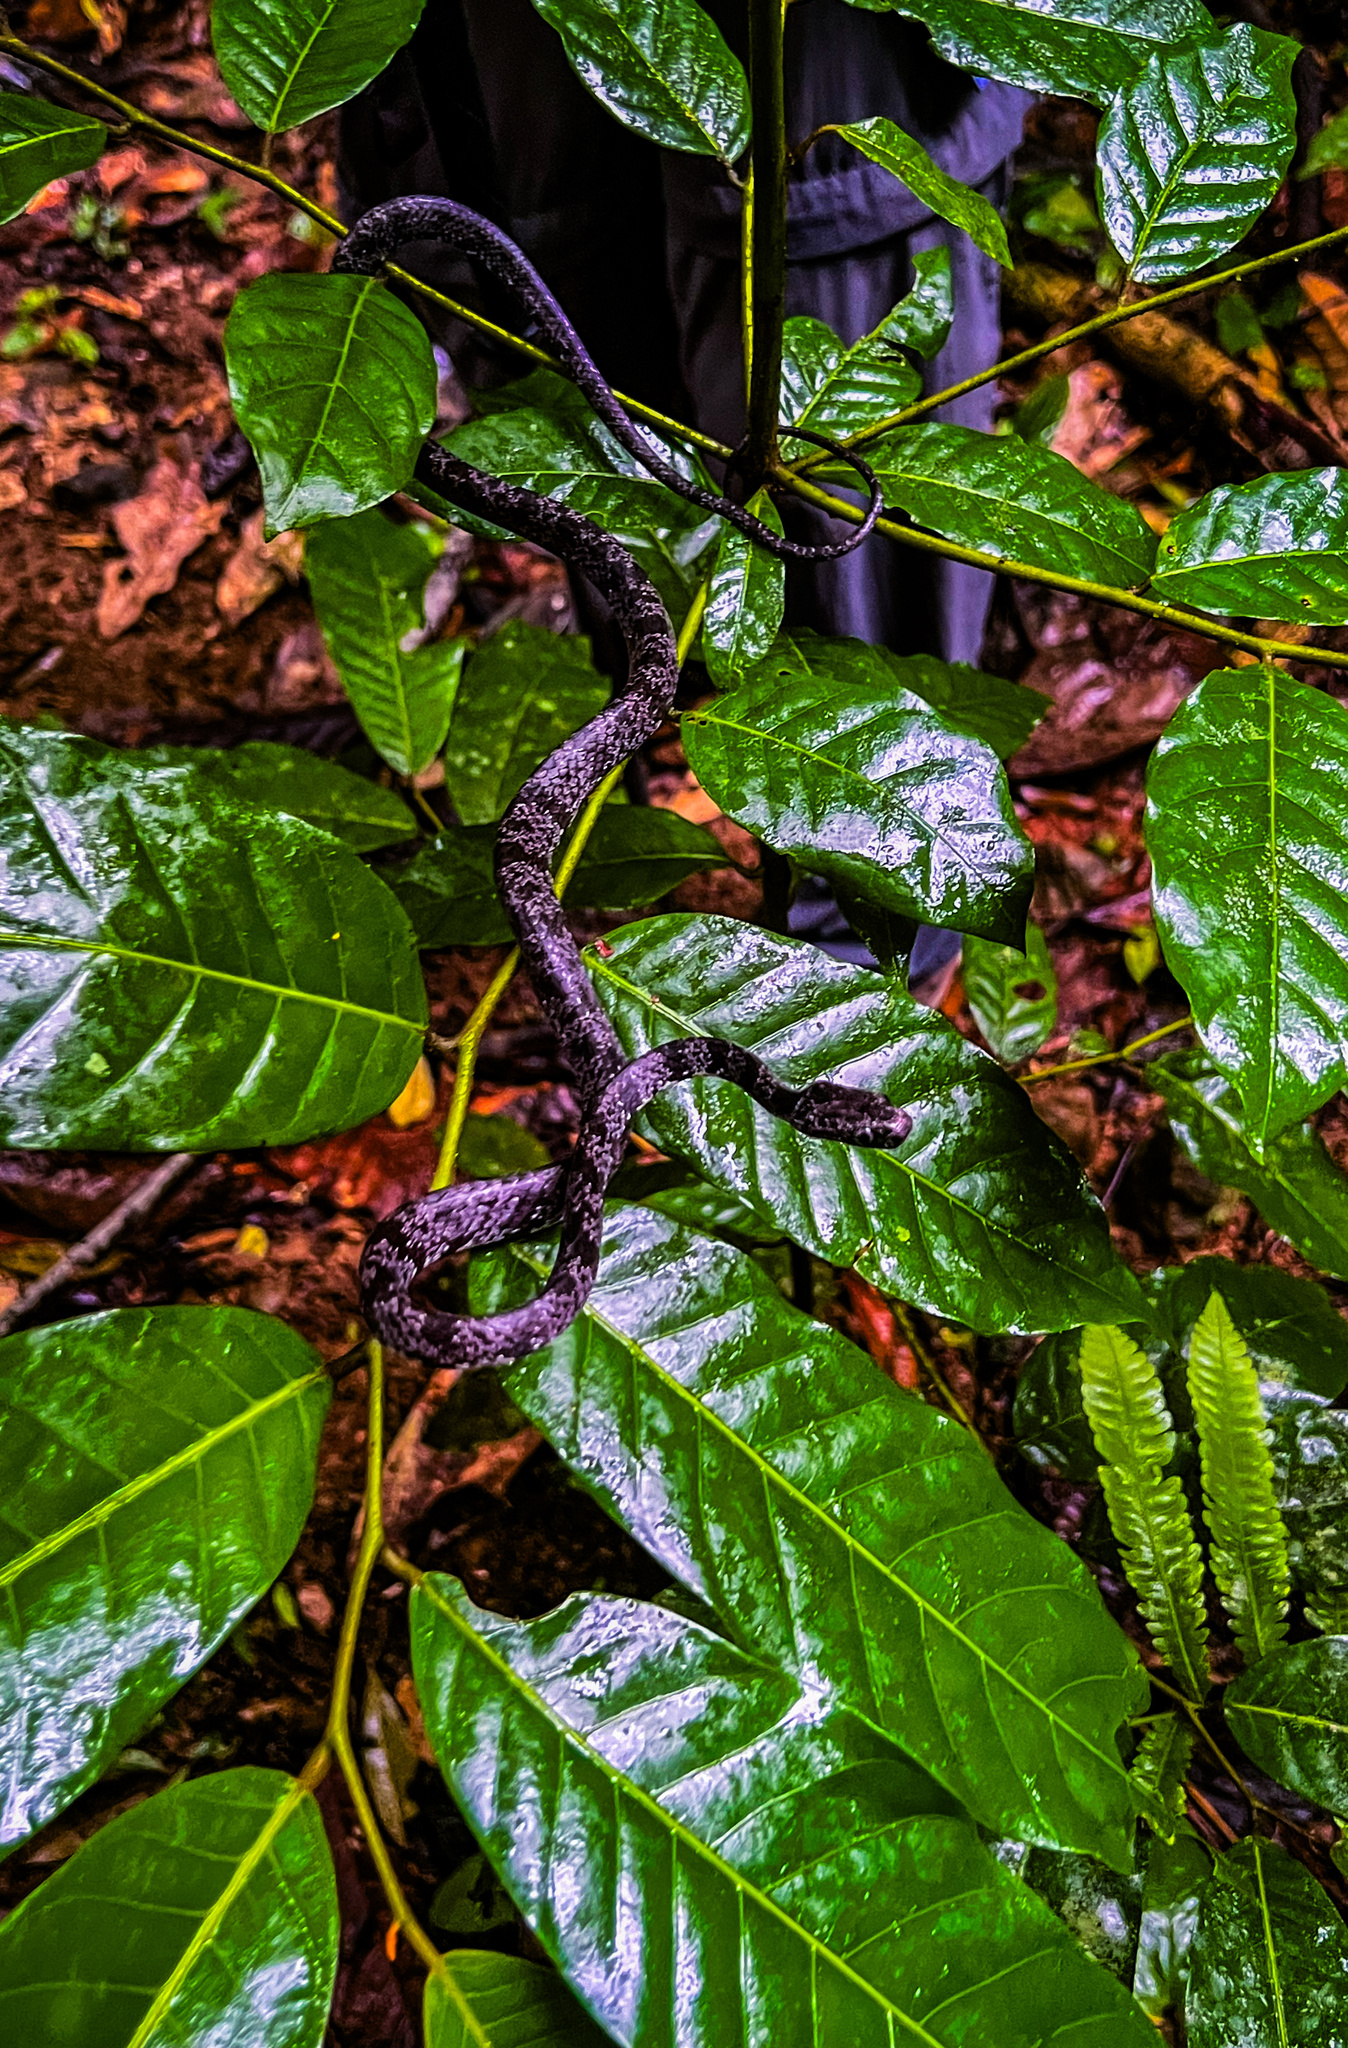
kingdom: Animalia
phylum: Chordata
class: Squamata
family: Colubridae
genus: Sibon
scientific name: Sibon nebulatus
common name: Cloudy snail-eating snake
